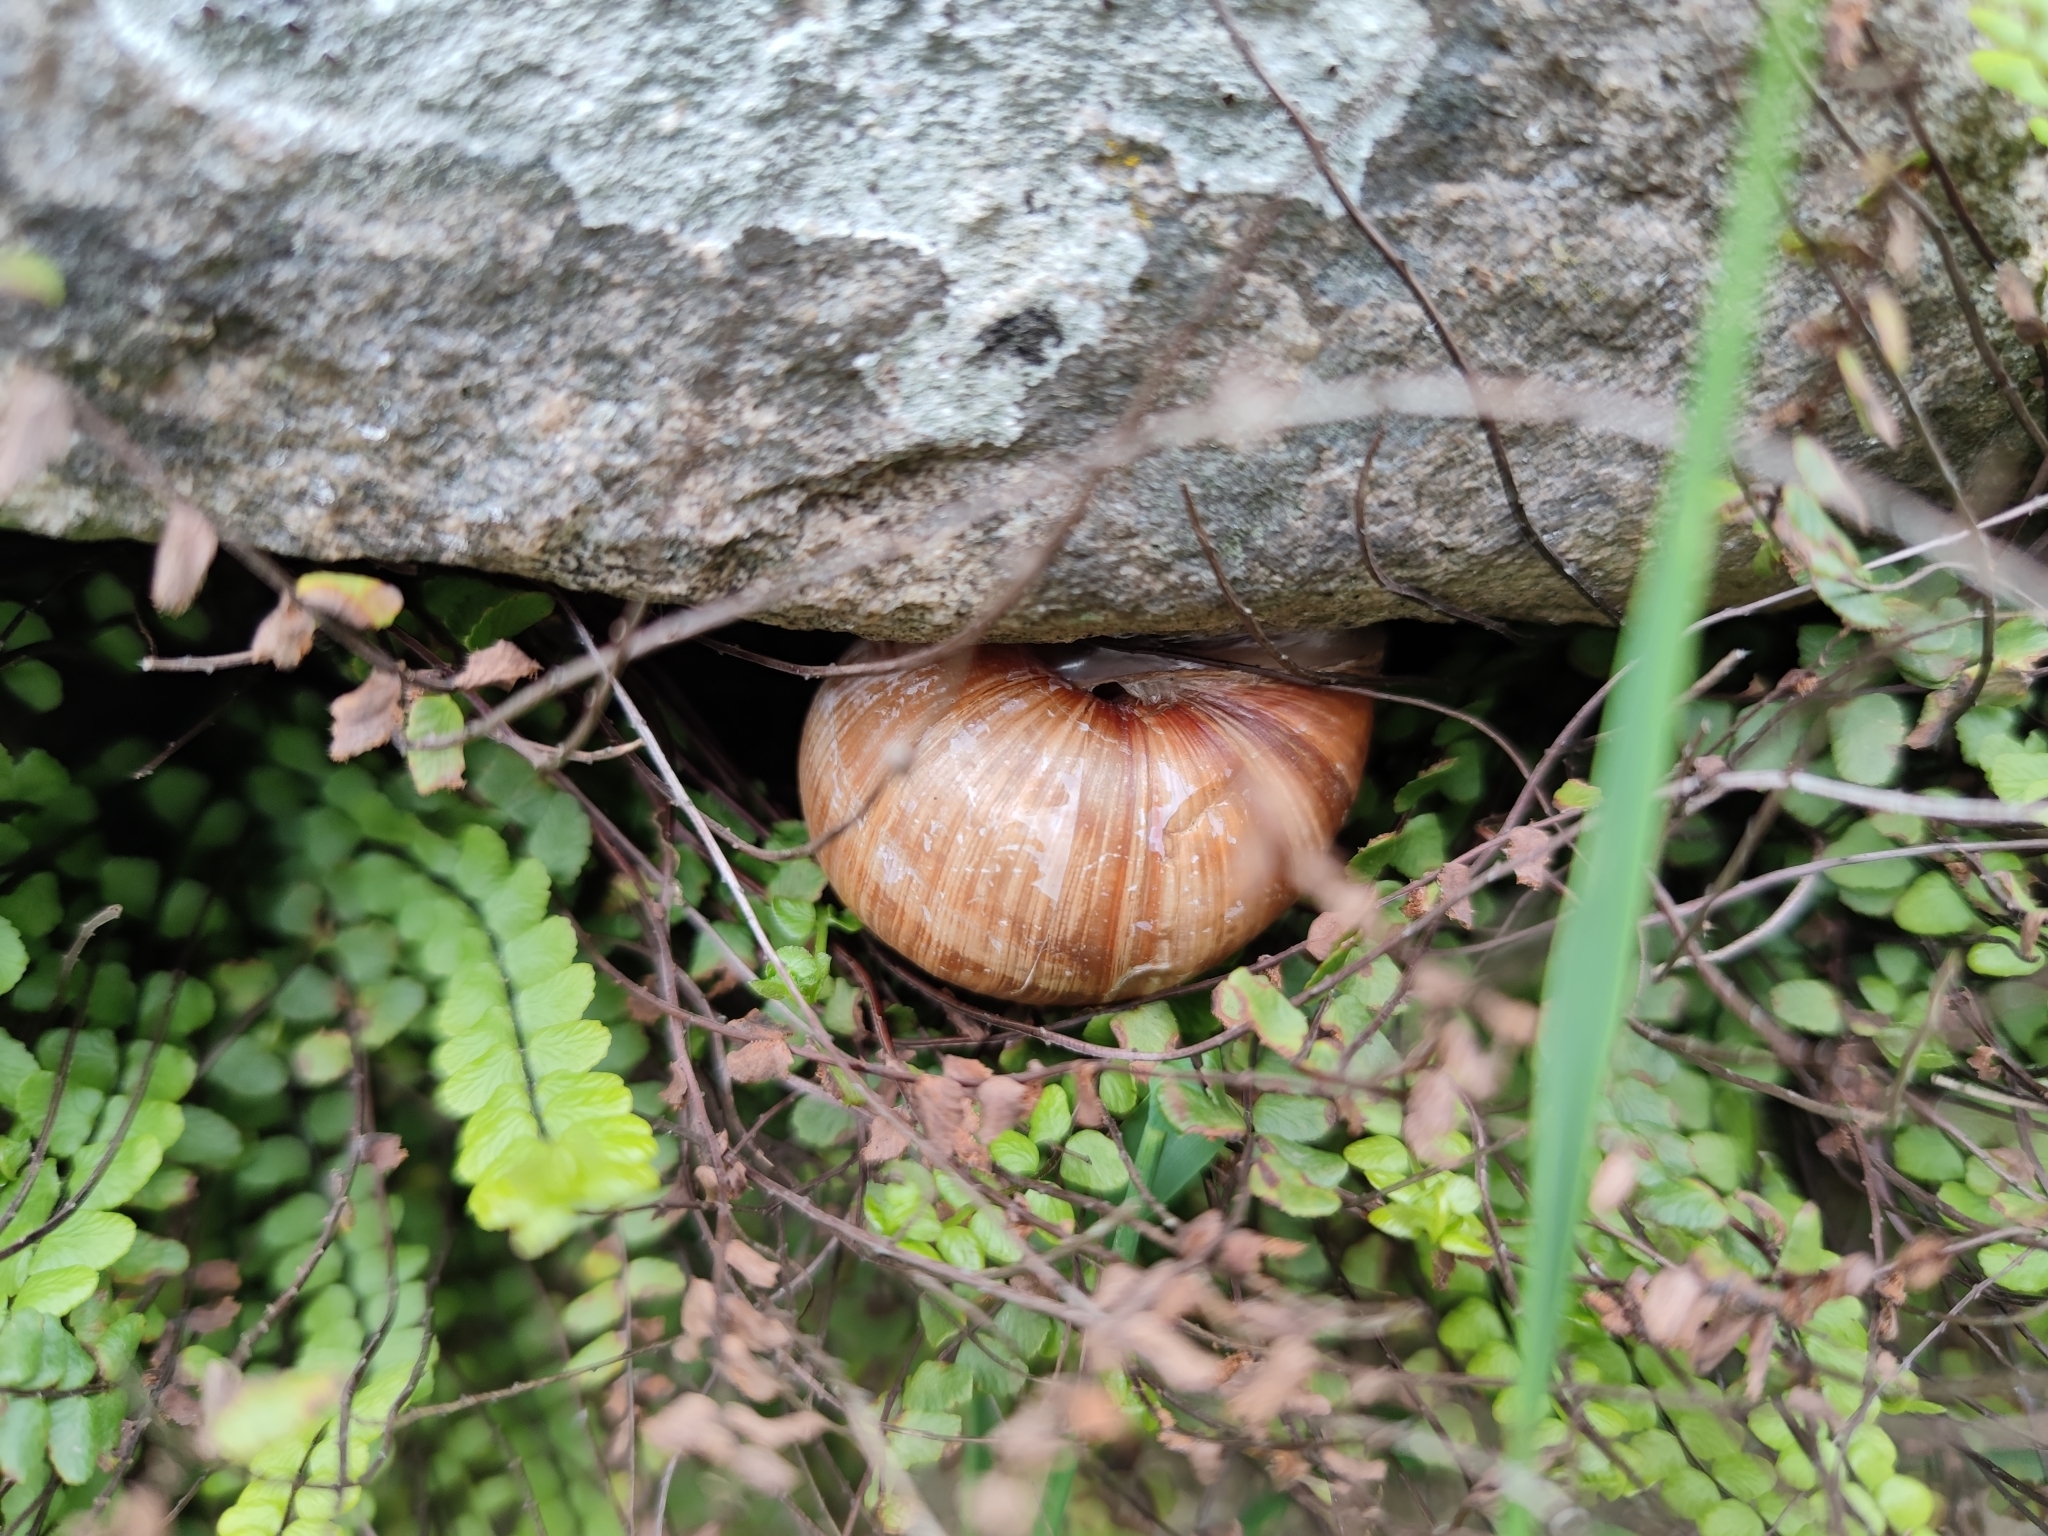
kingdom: Animalia
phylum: Mollusca
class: Gastropoda
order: Stylommatophora
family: Helicidae
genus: Helix
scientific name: Helix pomatia
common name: Roman snail
